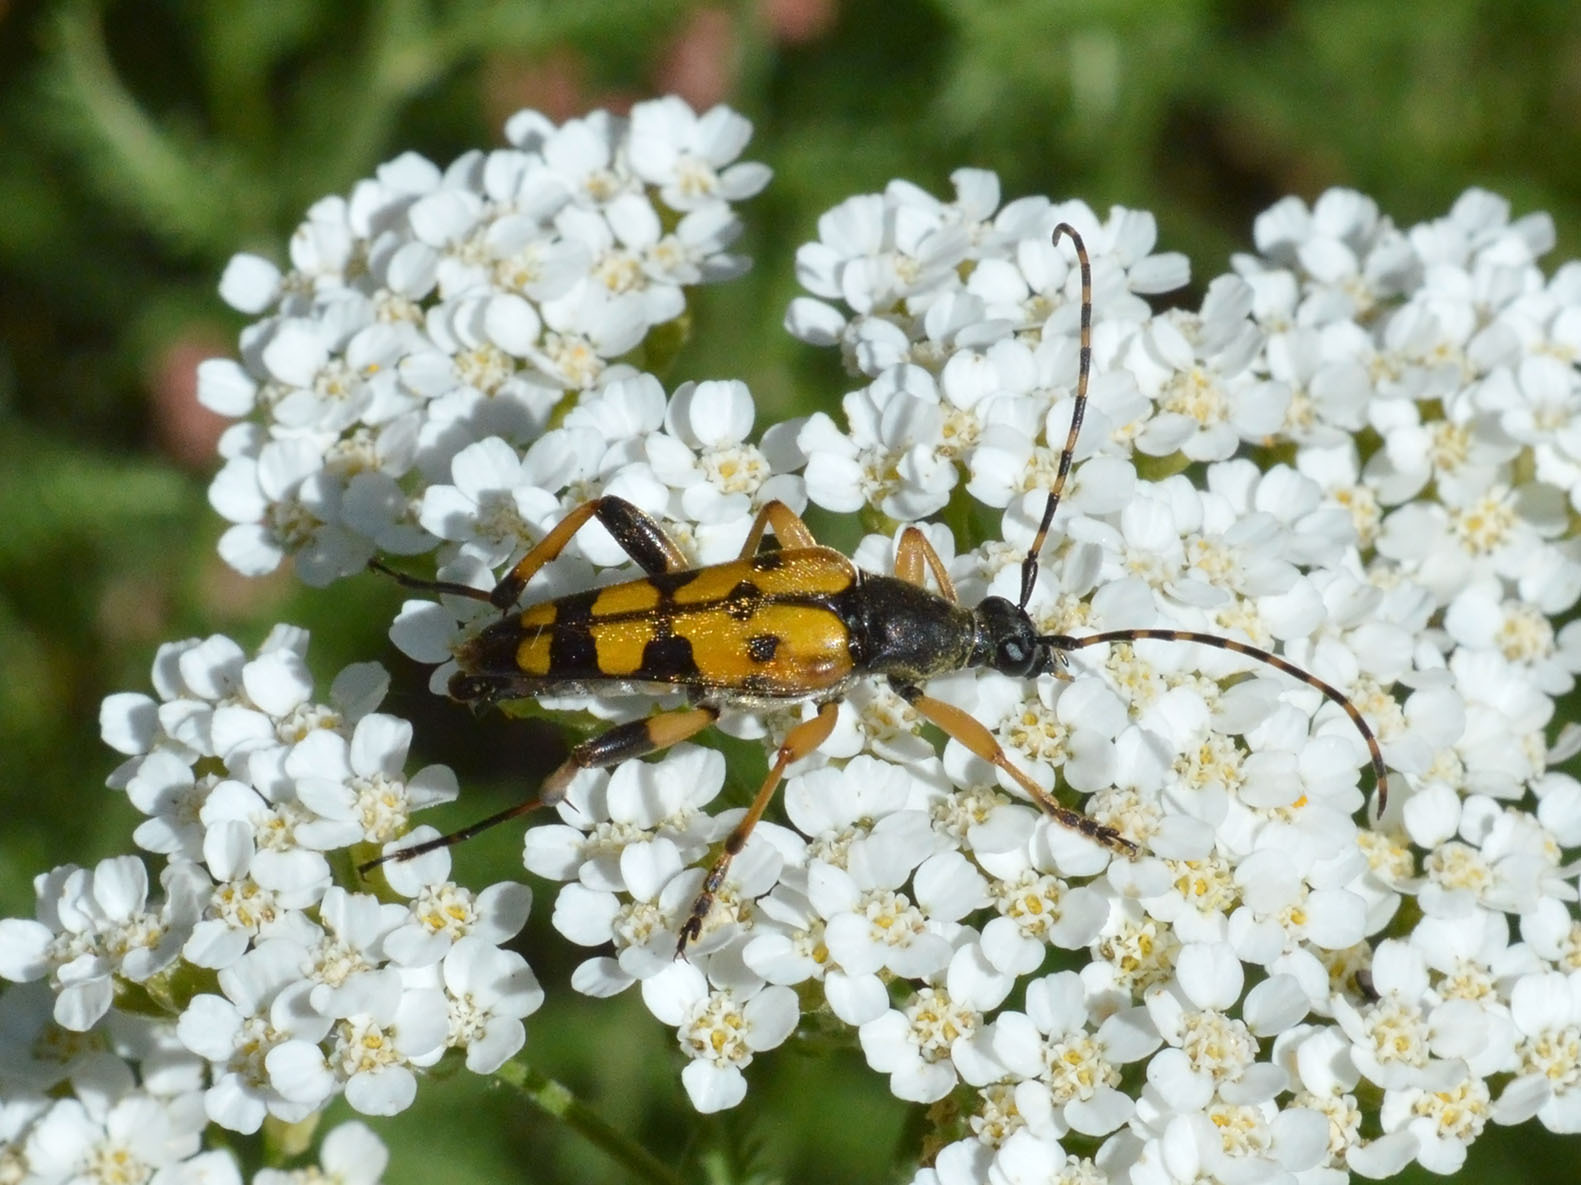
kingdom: Animalia
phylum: Arthropoda
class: Insecta
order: Coleoptera
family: Cerambycidae
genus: Rutpela
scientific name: Rutpela maculata
